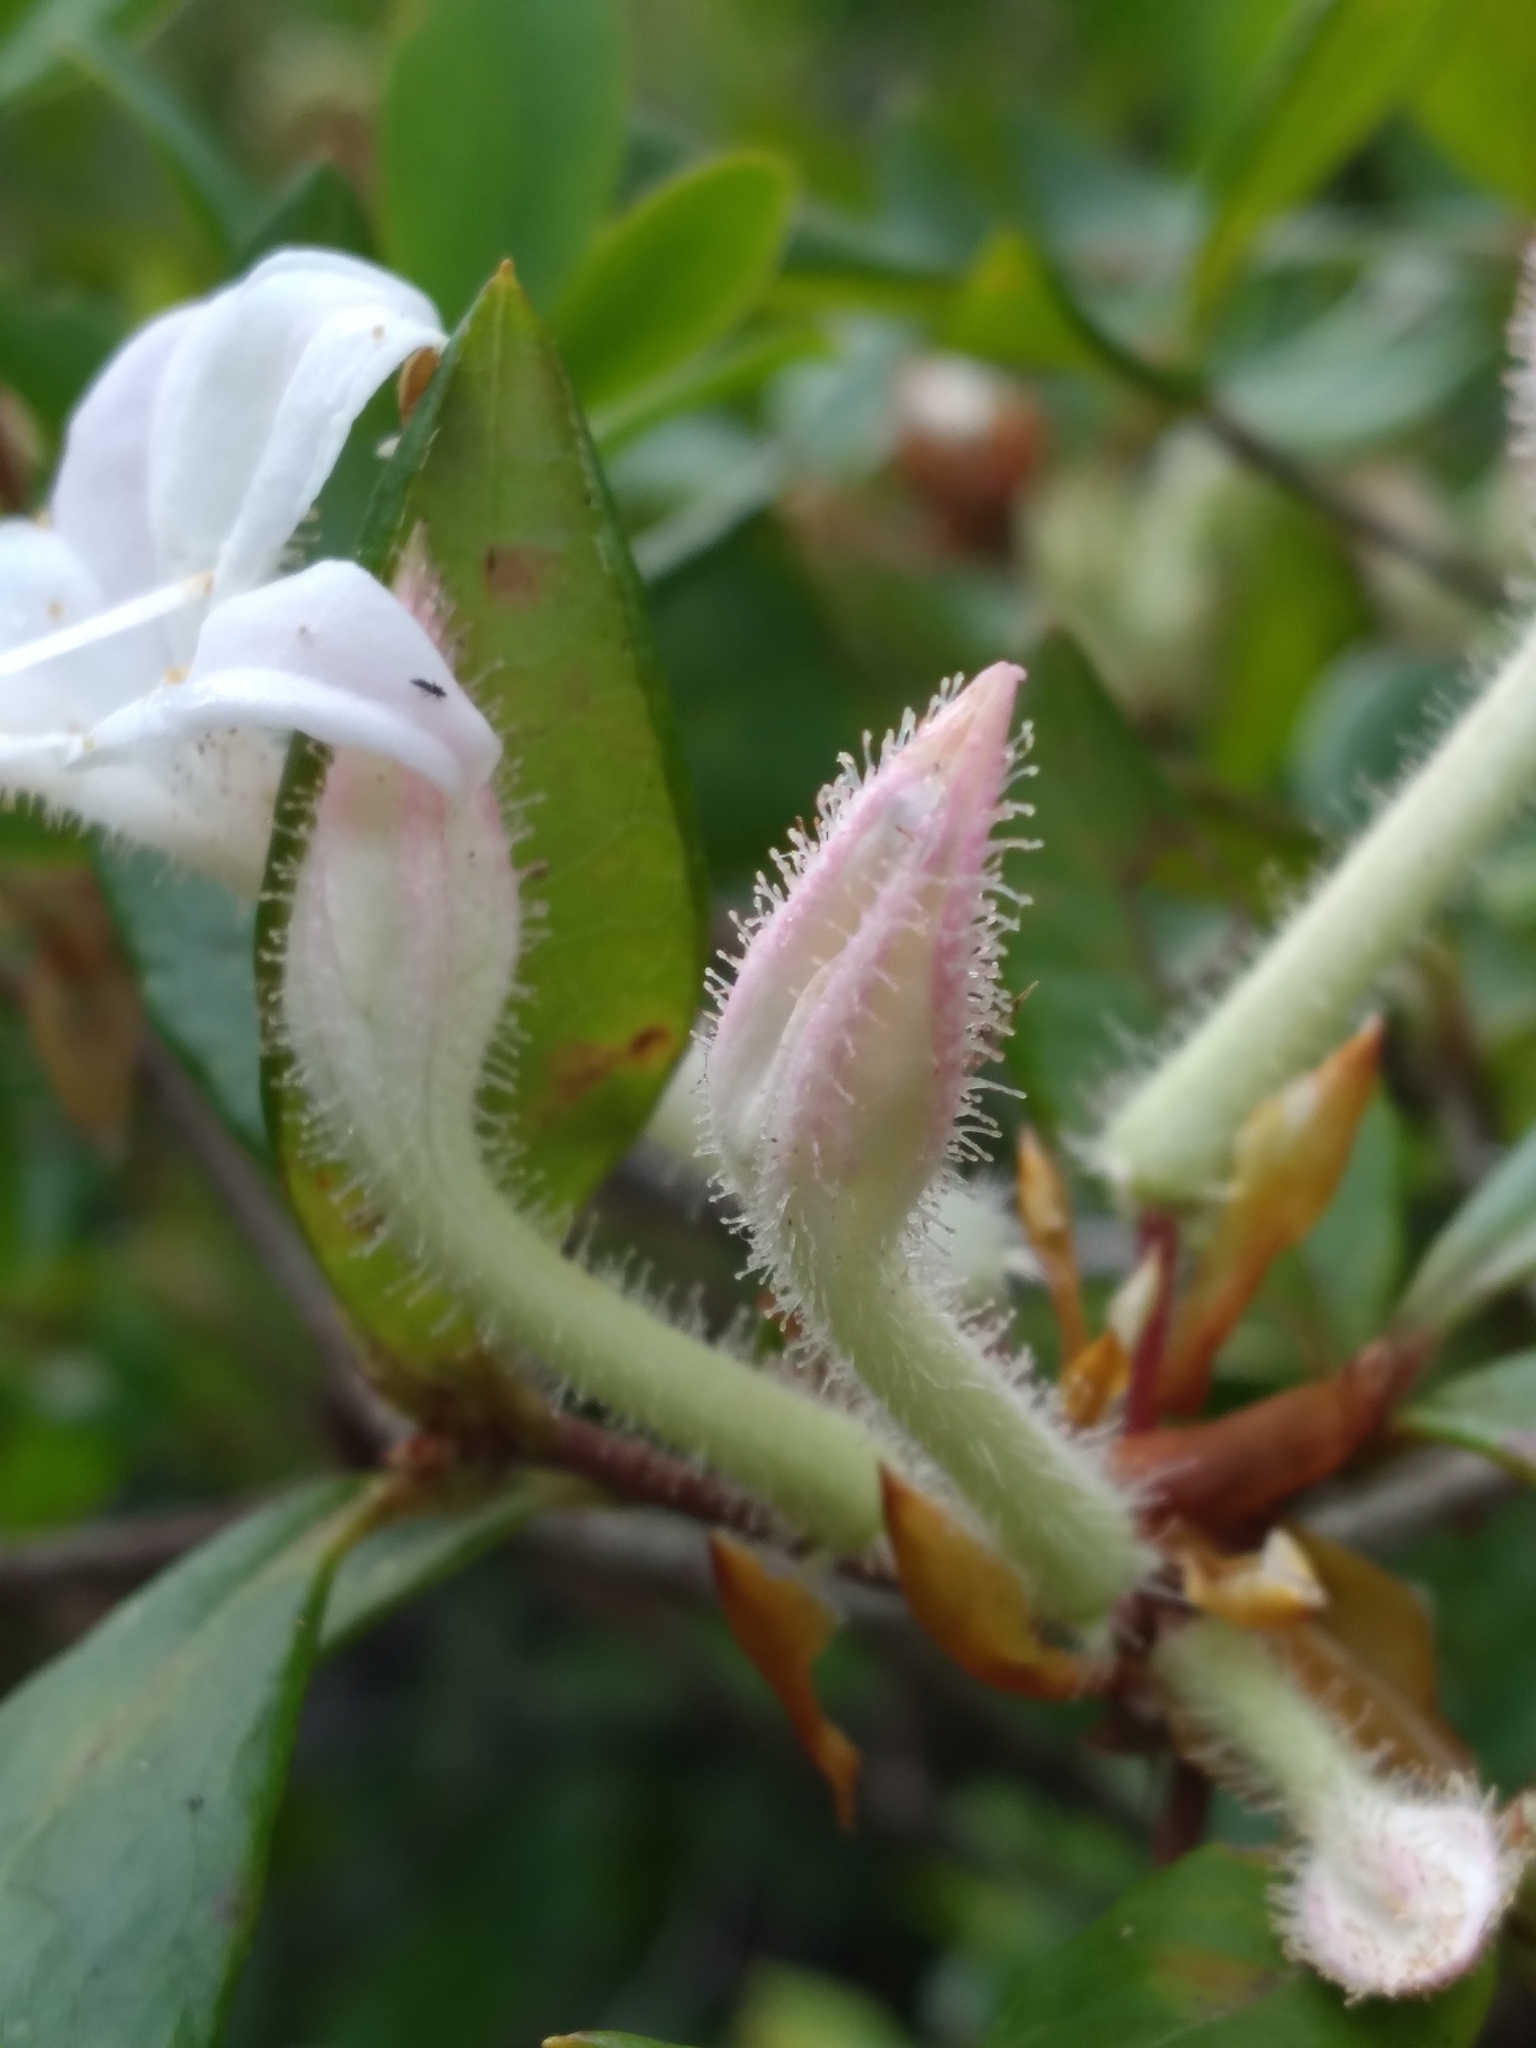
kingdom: Plantae
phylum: Tracheophyta
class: Magnoliopsida
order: Ericales
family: Ericaceae
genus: Rhododendron
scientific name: Rhododendron serrulatum
